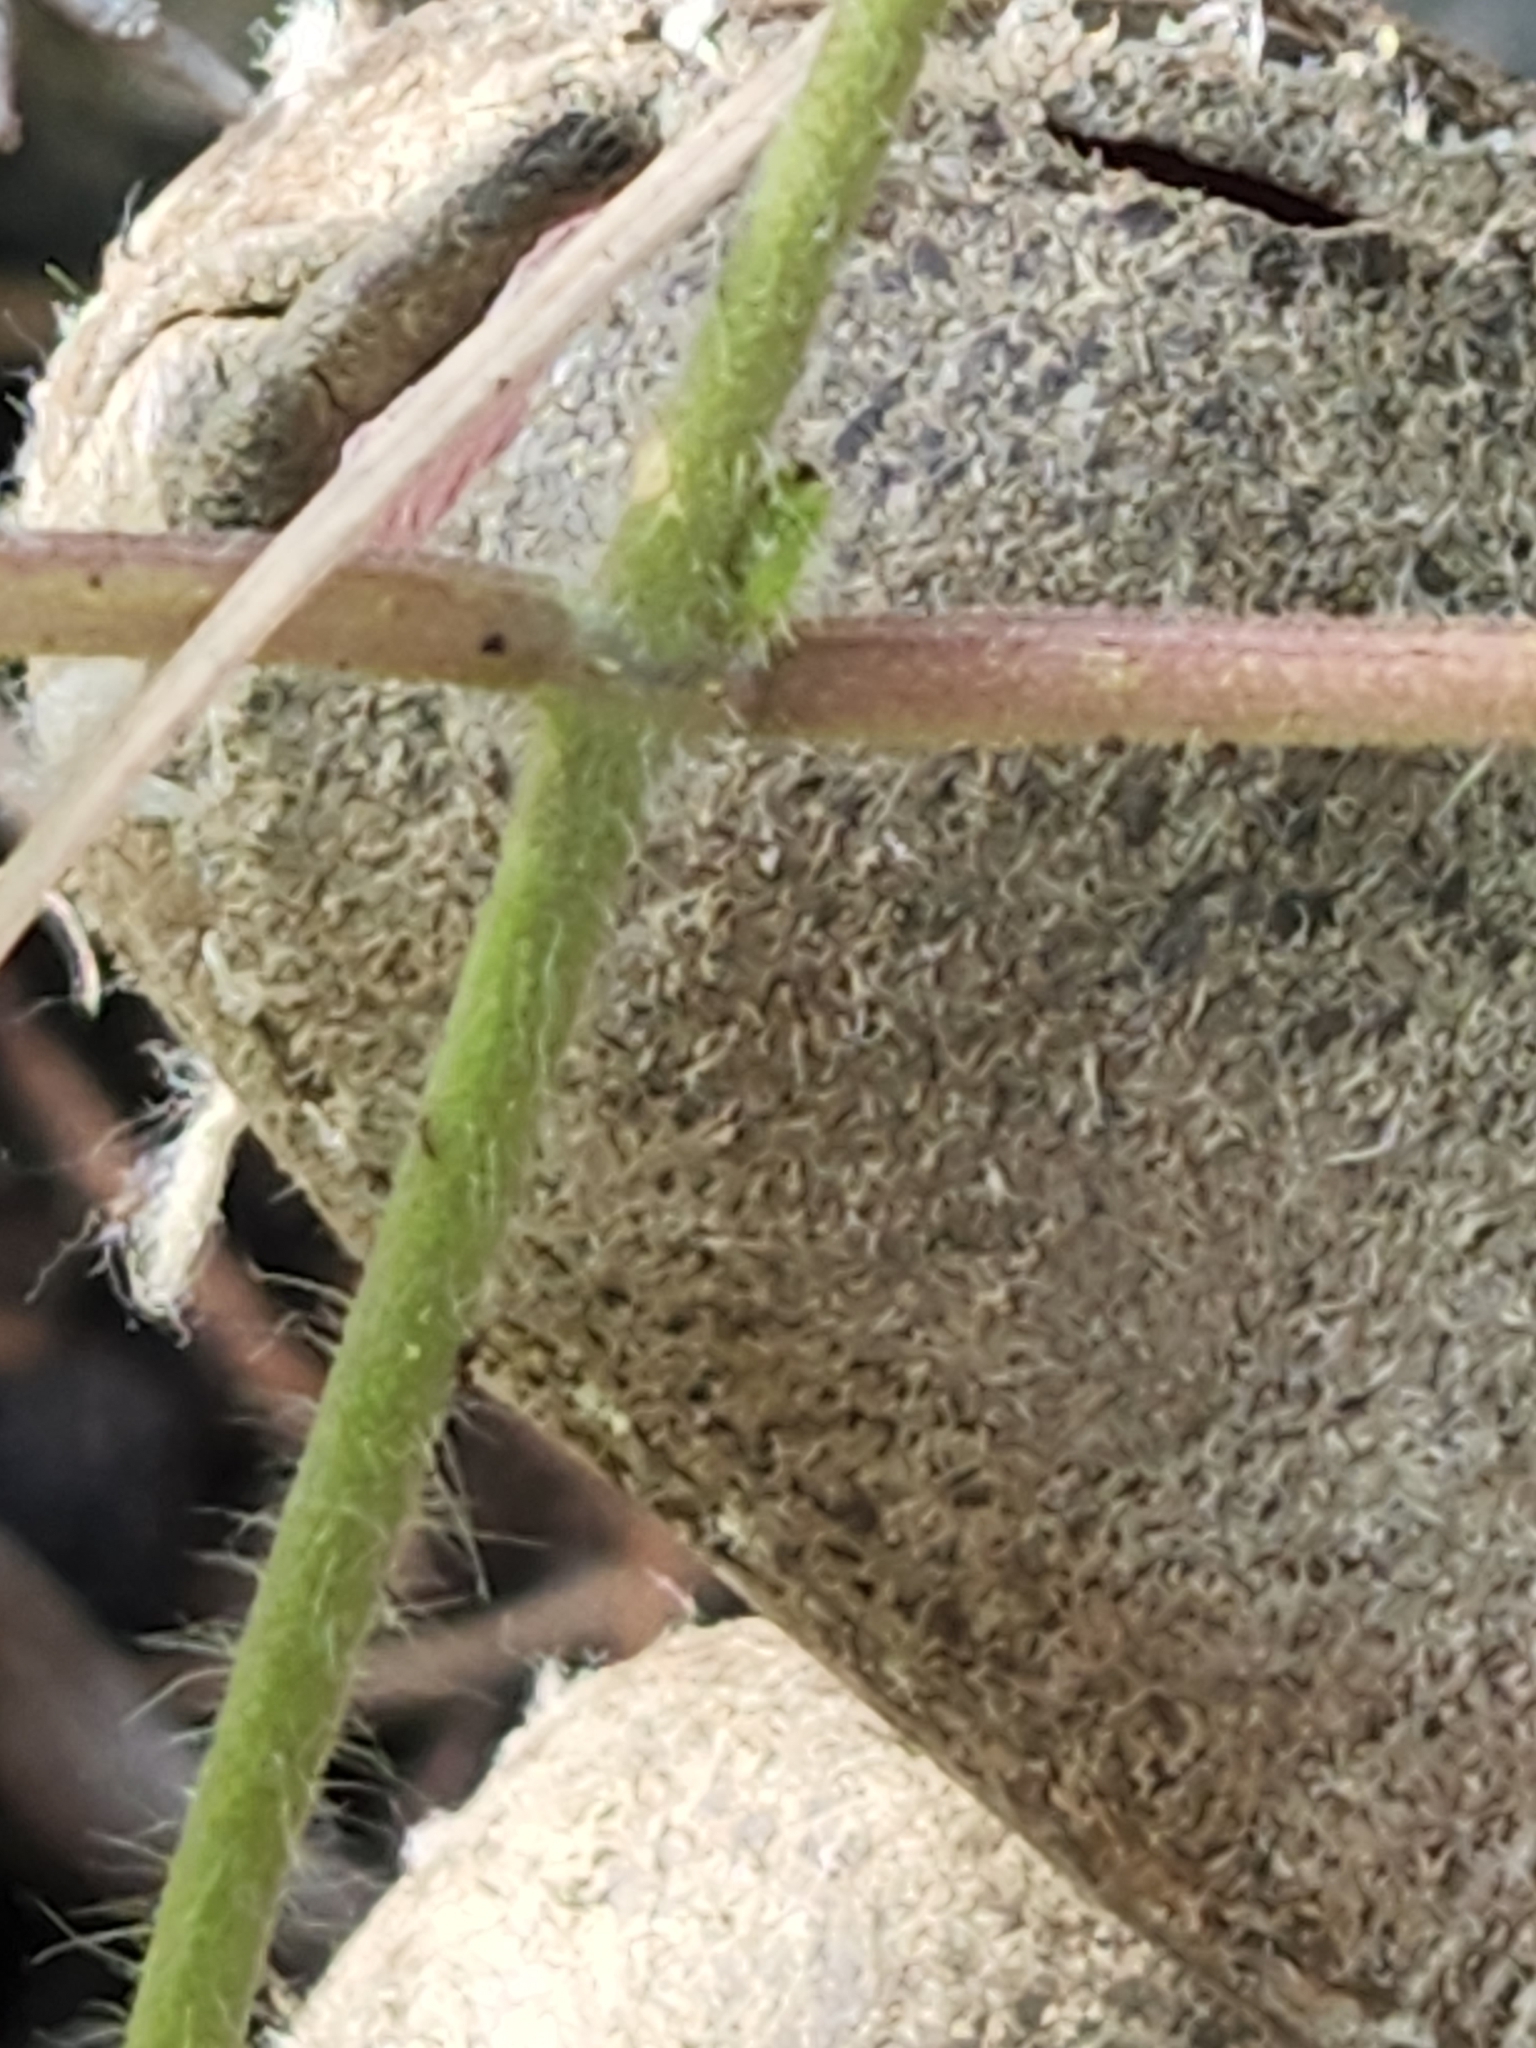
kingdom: Plantae
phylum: Tracheophyta
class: Magnoliopsida
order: Gentianales
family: Apocynaceae
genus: Dictyanthus
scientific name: Dictyanthus reticulatus
